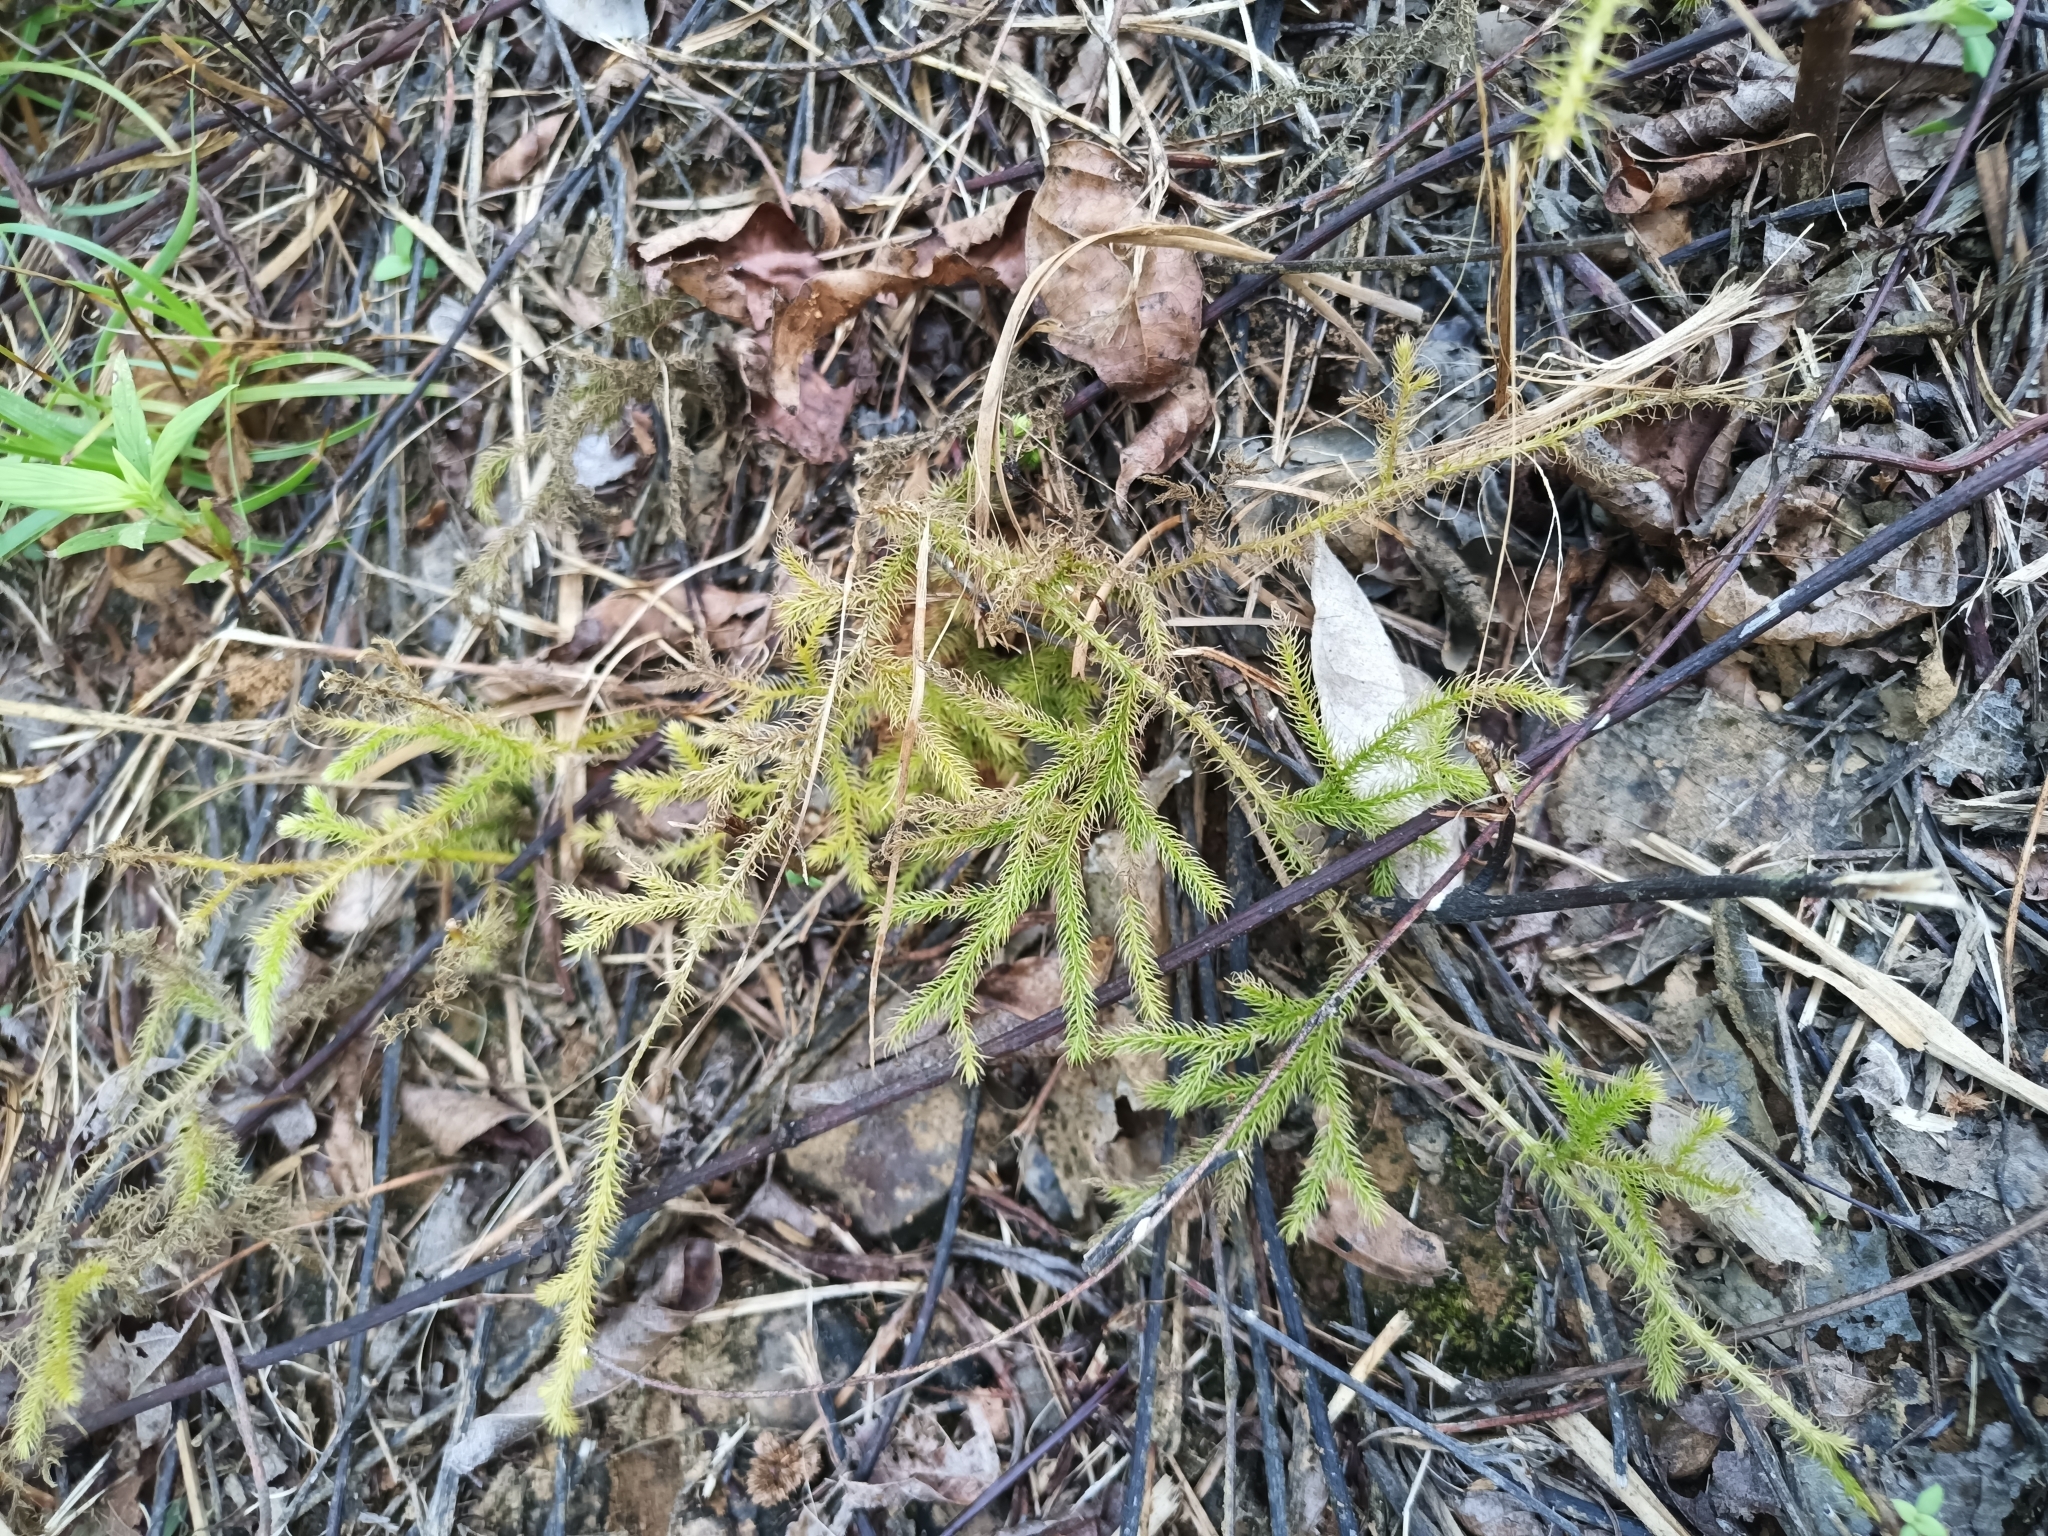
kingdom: Plantae
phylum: Tracheophyta
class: Lycopodiopsida
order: Lycopodiales
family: Lycopodiaceae
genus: Palhinhaea
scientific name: Palhinhaea cernua
